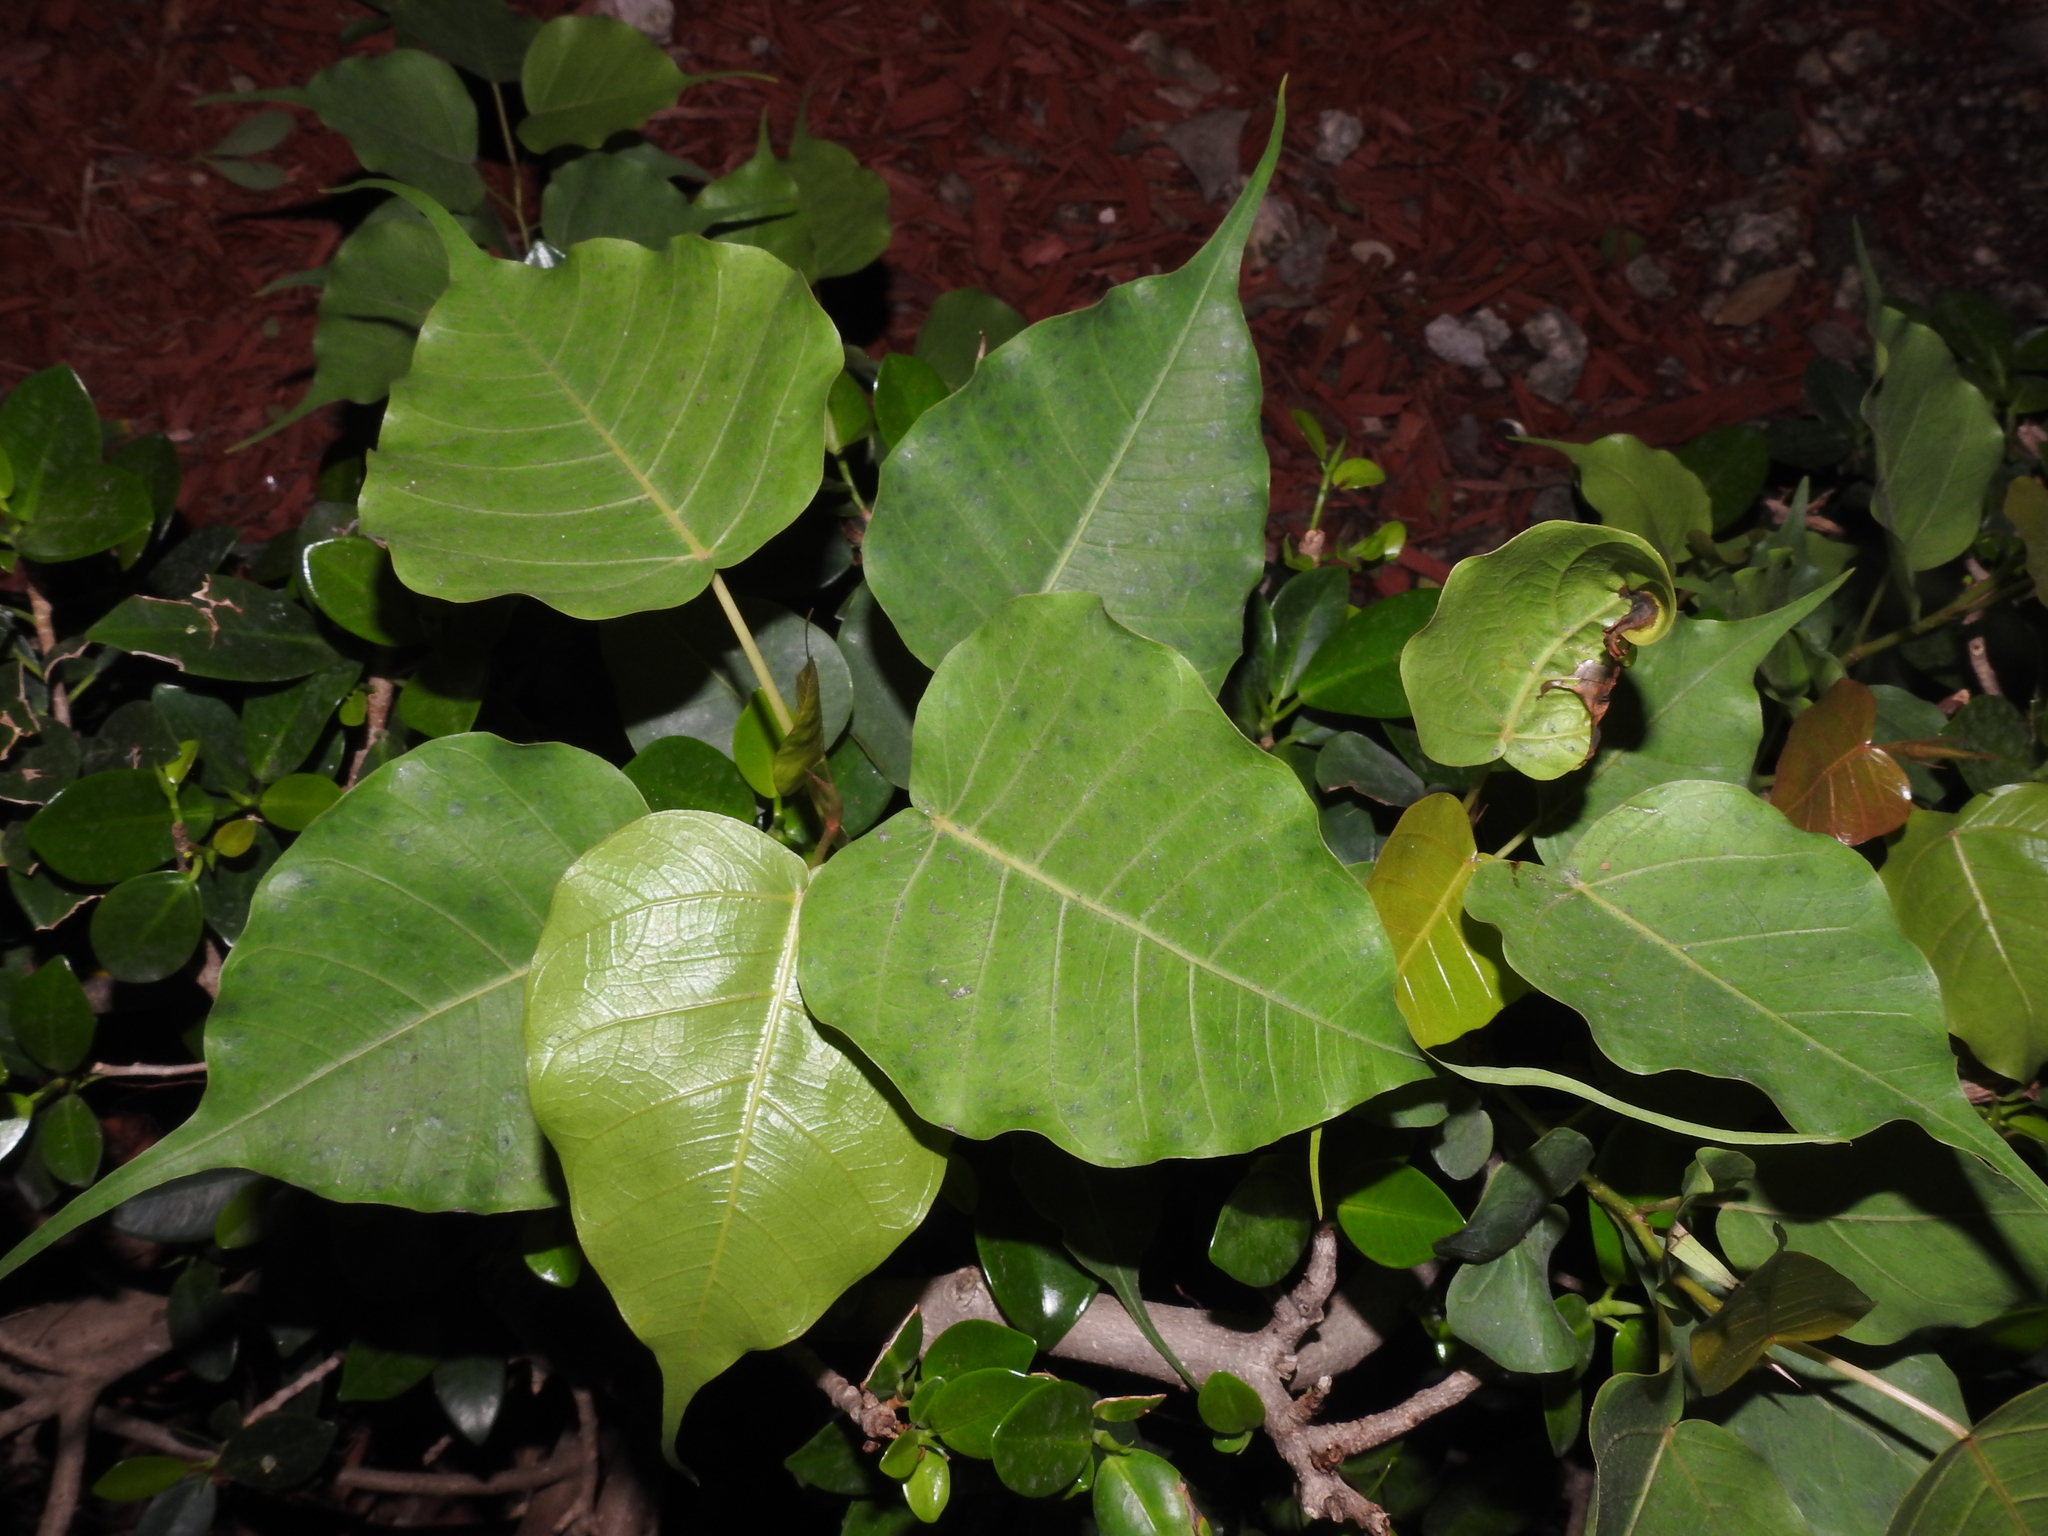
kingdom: Plantae
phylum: Tracheophyta
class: Magnoliopsida
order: Rosales
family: Moraceae
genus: Ficus
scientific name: Ficus religiosa
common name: Bodhi tree
